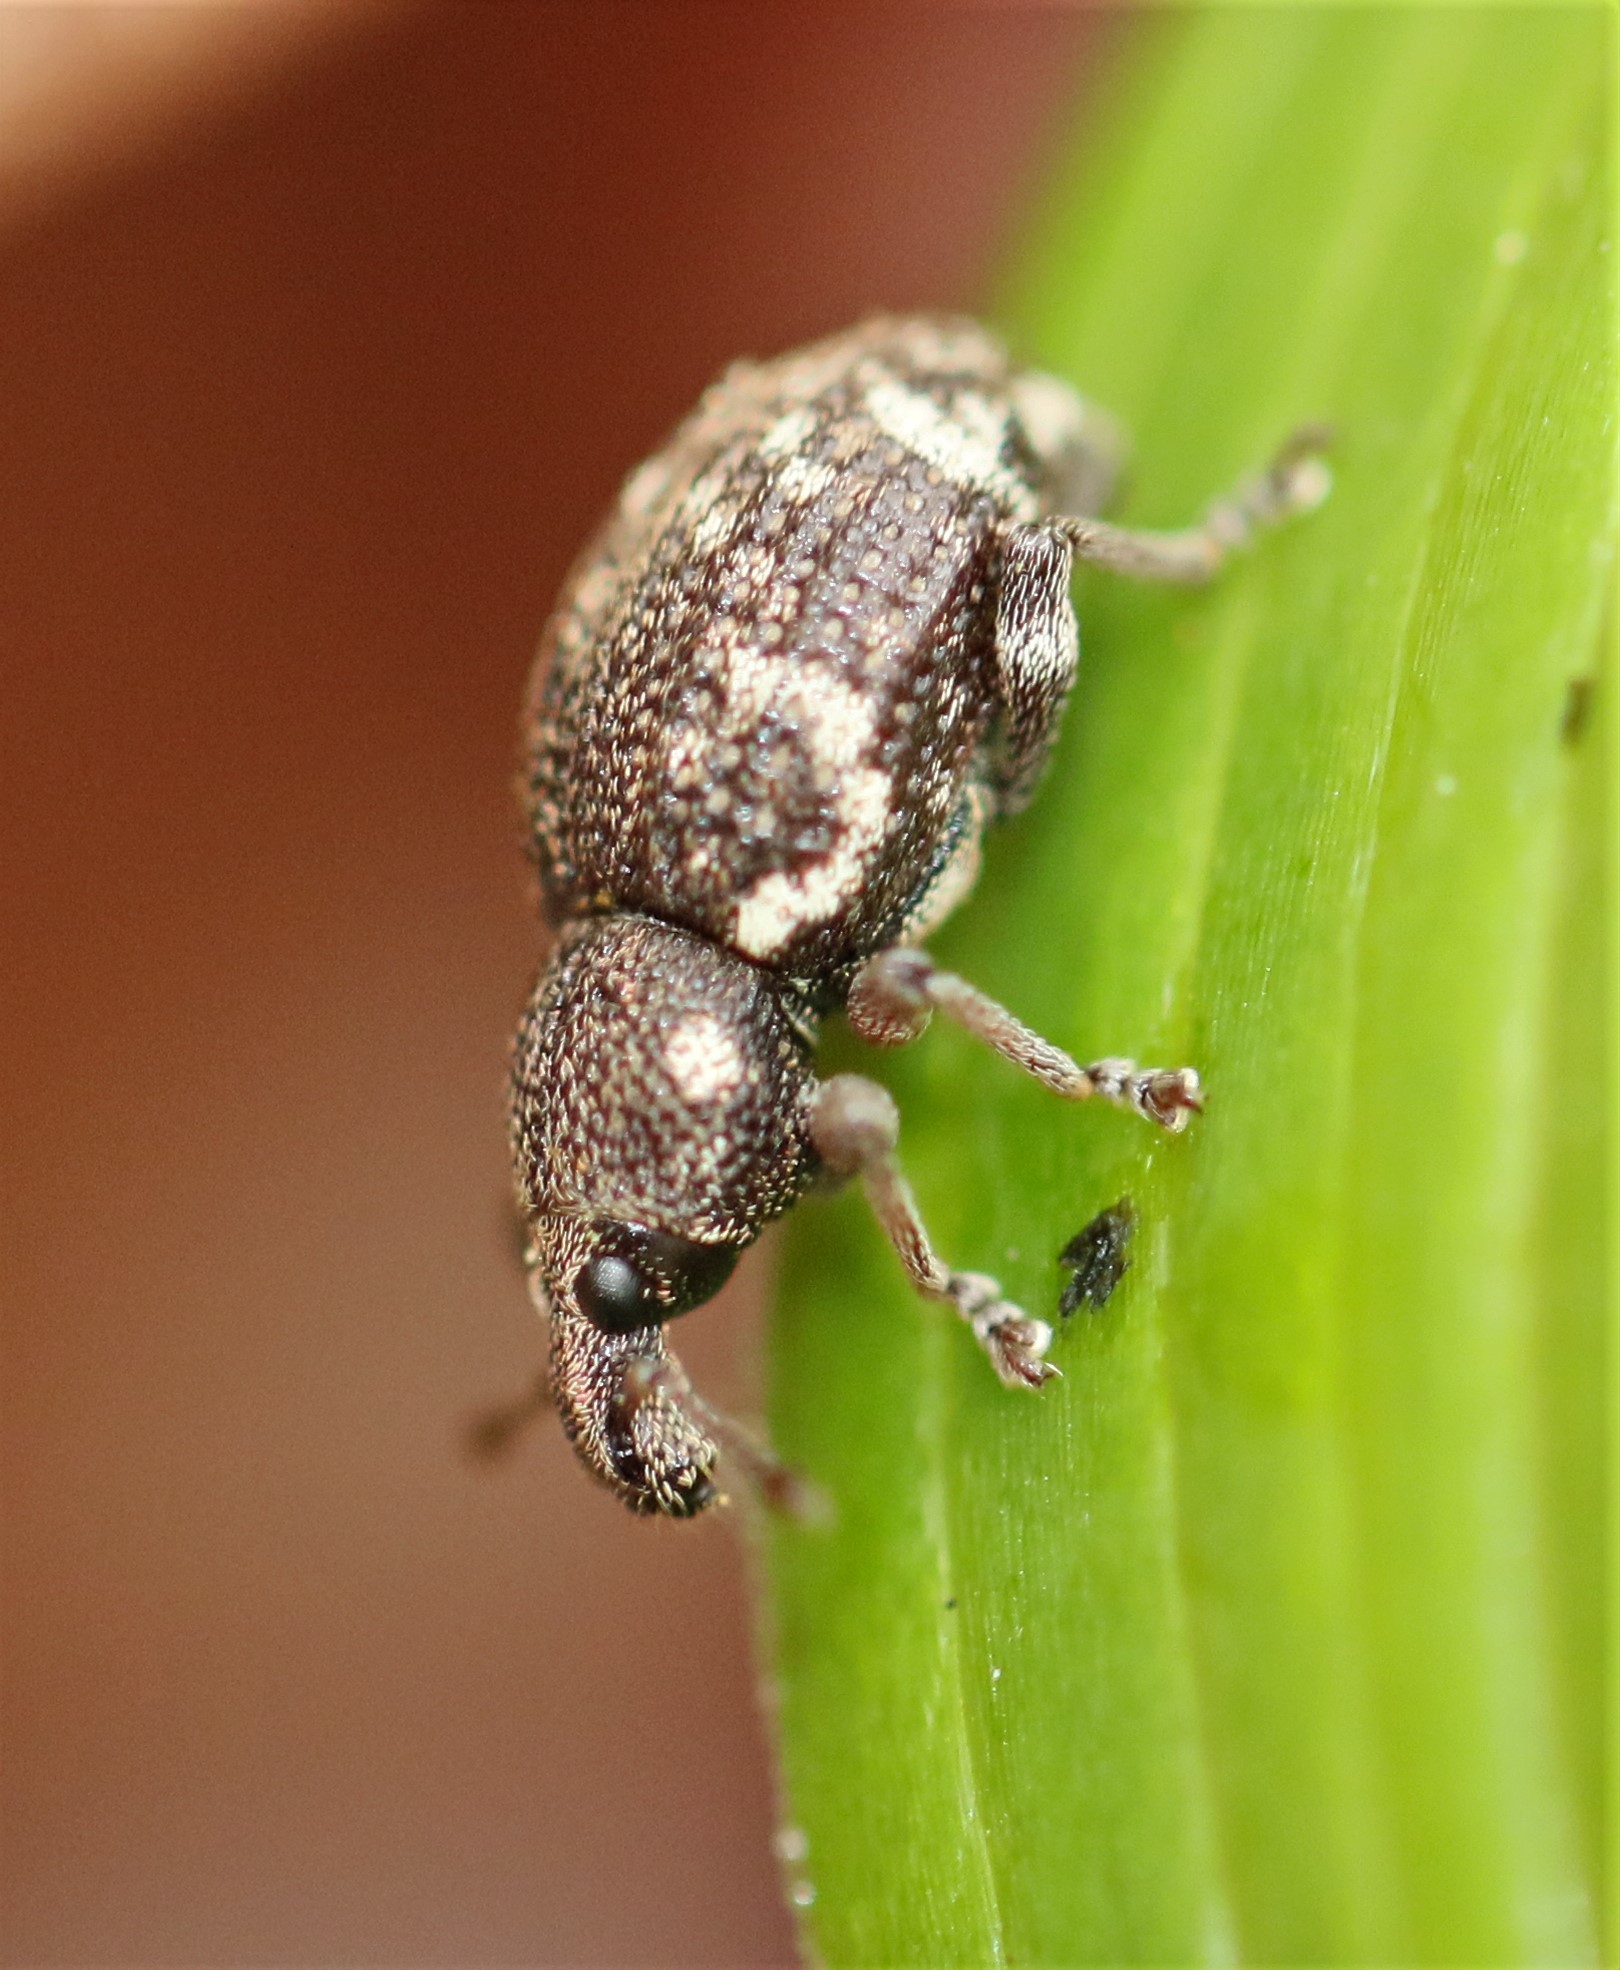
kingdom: Animalia
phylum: Arthropoda
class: Insecta
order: Coleoptera
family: Curculionidae
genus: Hormorus
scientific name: Hormorus undulatus
